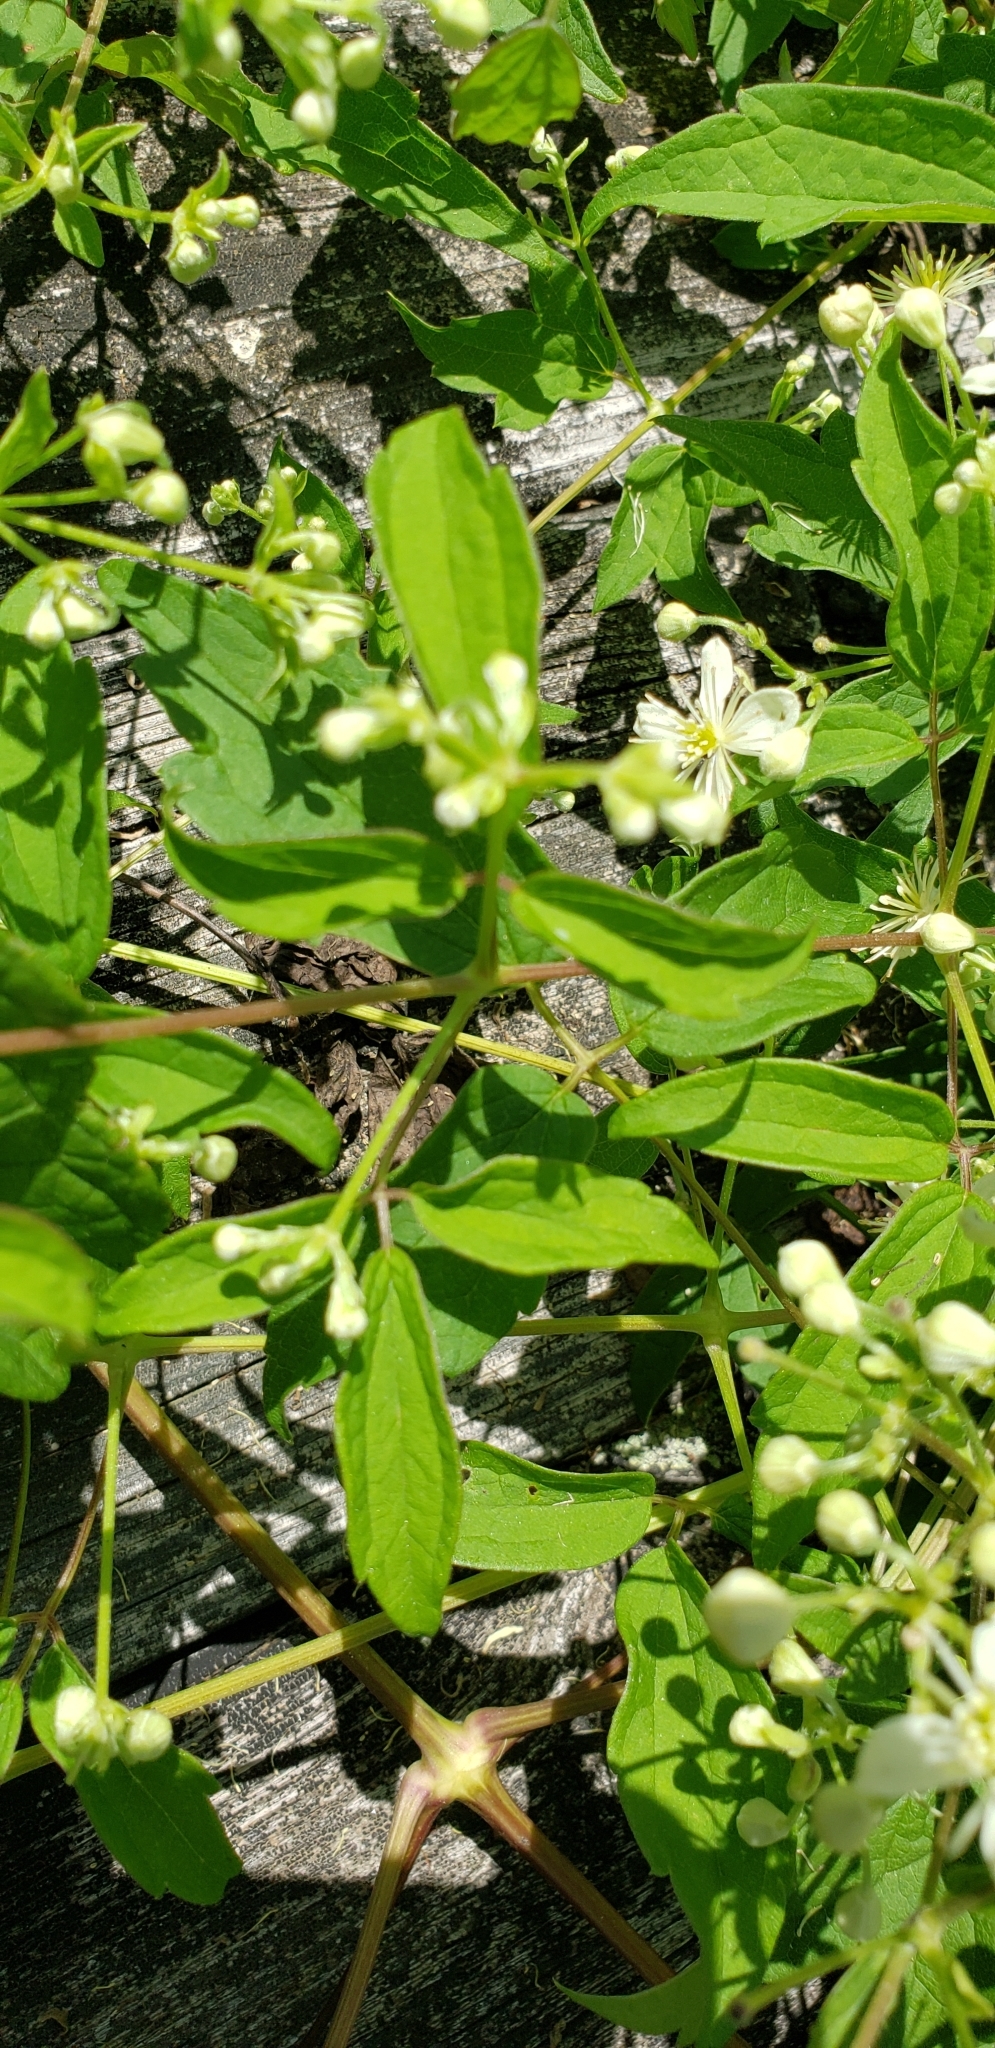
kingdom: Plantae
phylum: Tracheophyta
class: Magnoliopsida
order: Ranunculales
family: Ranunculaceae
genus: Clematis
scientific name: Clematis virginiana
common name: Virgin's-bower
